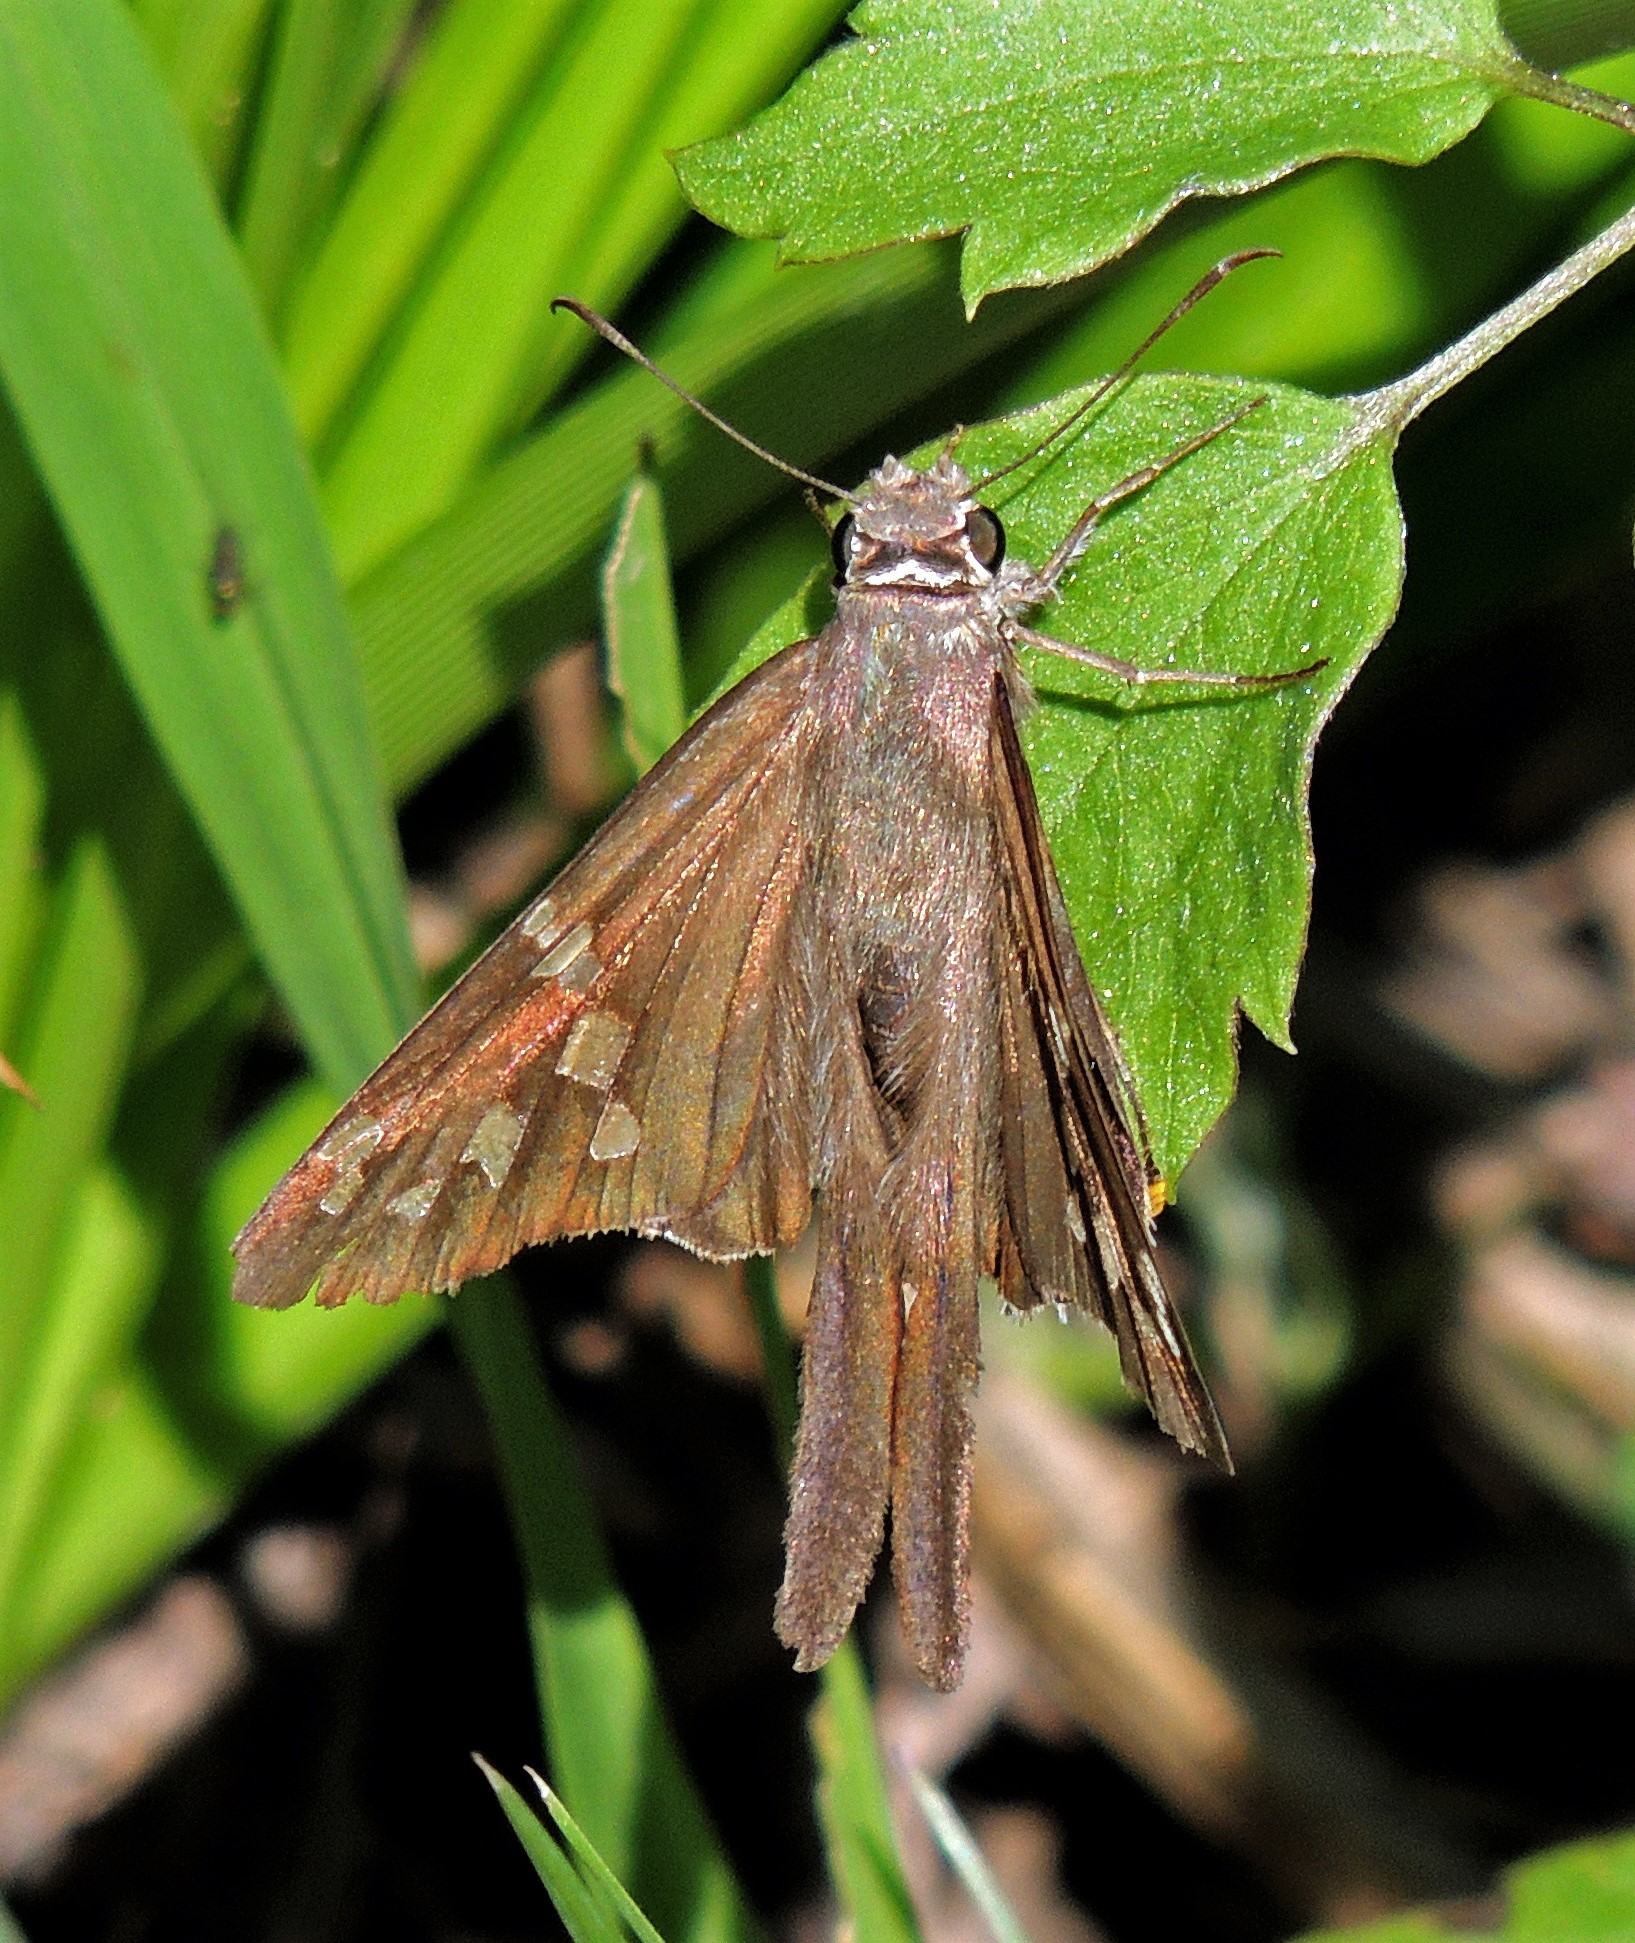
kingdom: Animalia
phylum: Arthropoda
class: Insecta
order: Lepidoptera
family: Hesperiidae
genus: Chioides
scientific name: Chioides catillus
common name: Silverbanded skipper
